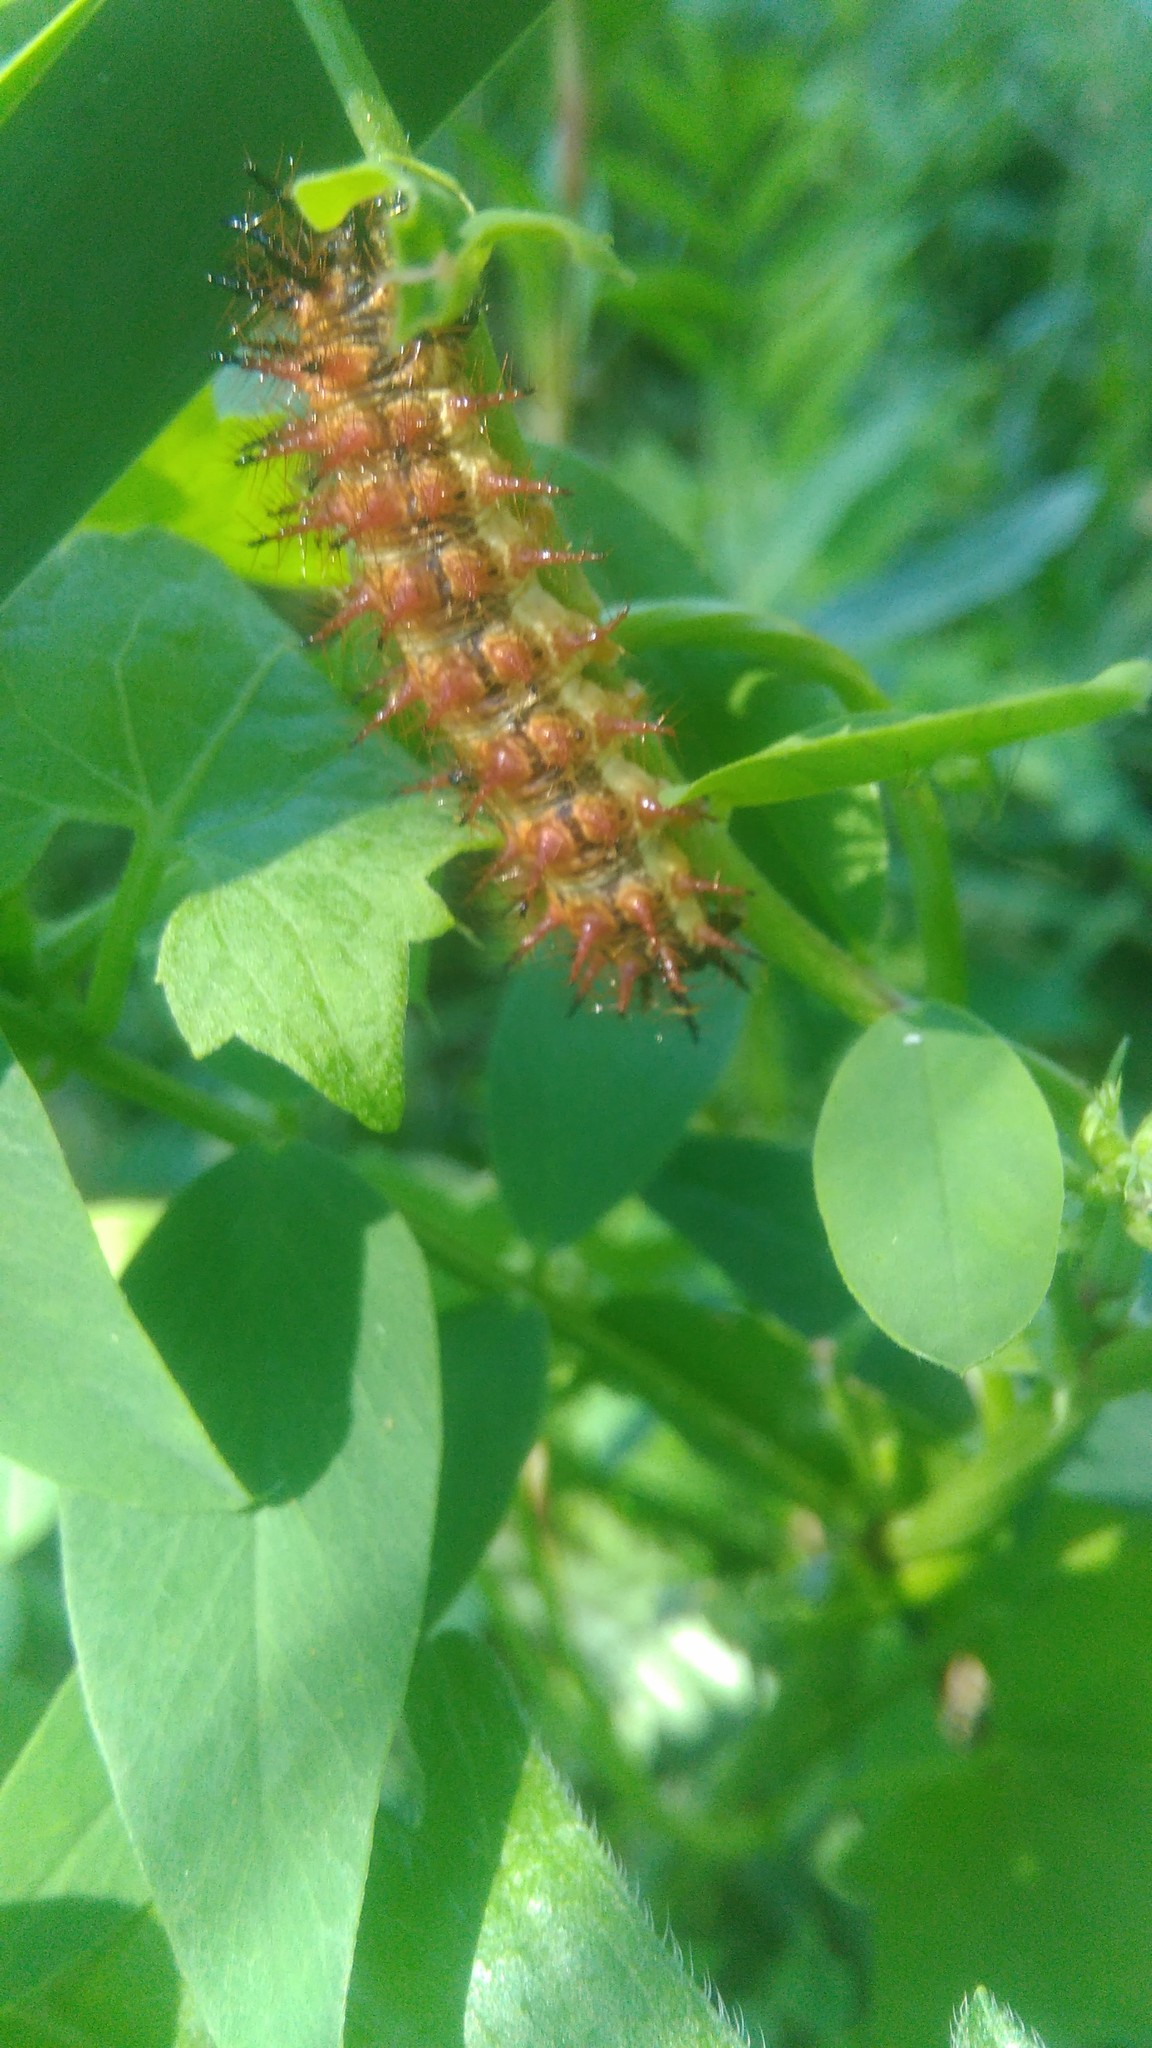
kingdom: Animalia
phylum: Arthropoda
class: Insecta
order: Lepidoptera
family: Nymphalidae
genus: Acraea
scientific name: Acraea momina
